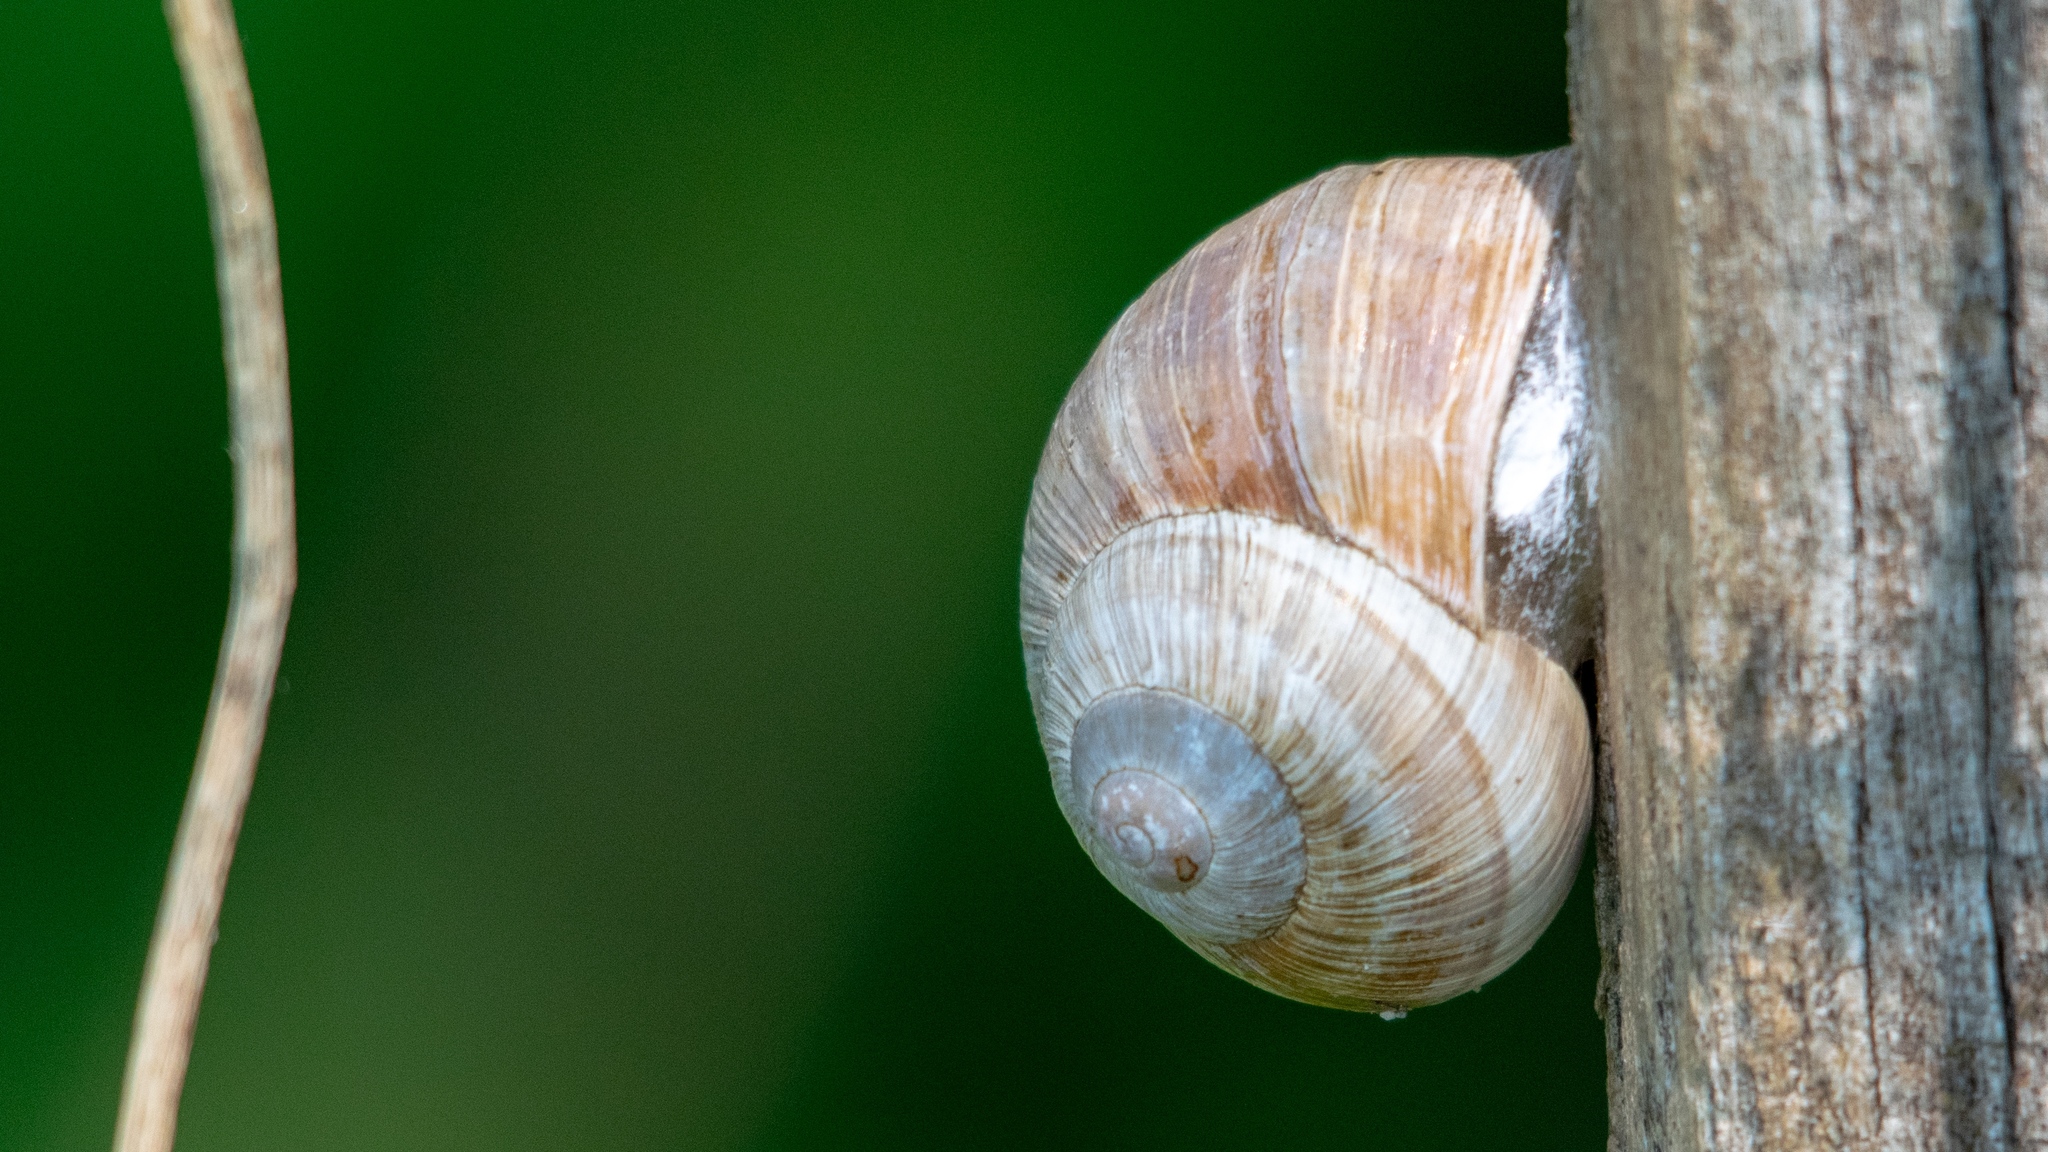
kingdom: Animalia
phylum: Mollusca
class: Gastropoda
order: Stylommatophora
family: Helicidae
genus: Helix
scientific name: Helix pomatia
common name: Roman snail
